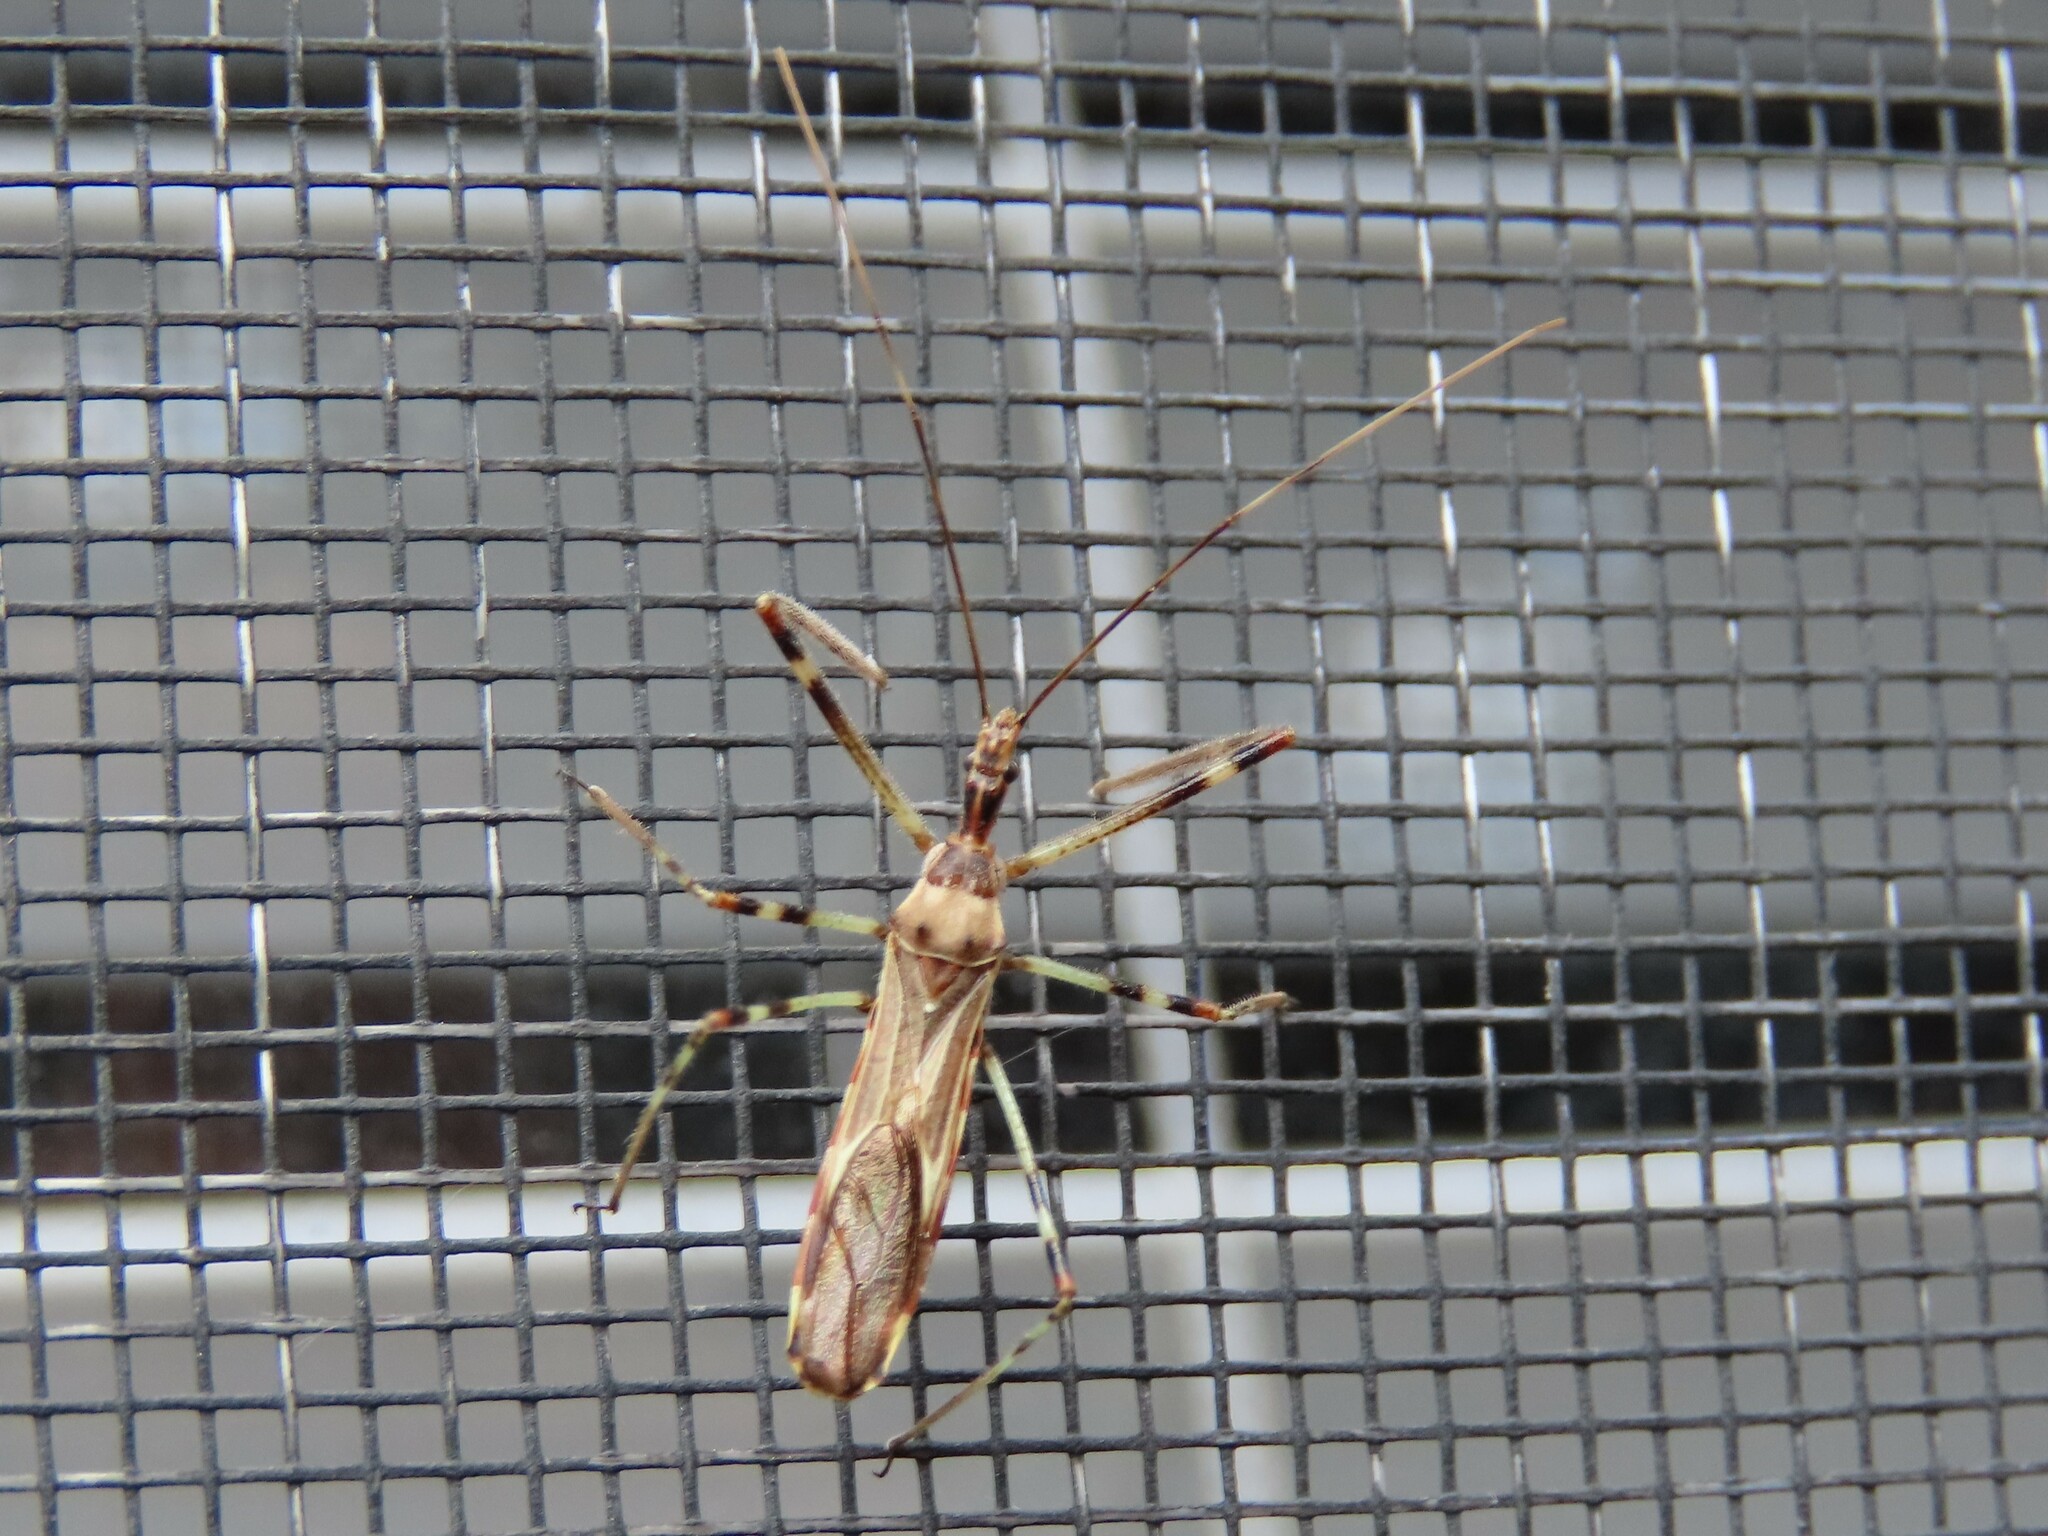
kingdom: Animalia
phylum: Arthropoda
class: Insecta
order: Hemiptera
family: Reduviidae
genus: Zelus
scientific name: Zelus tetracanthus
